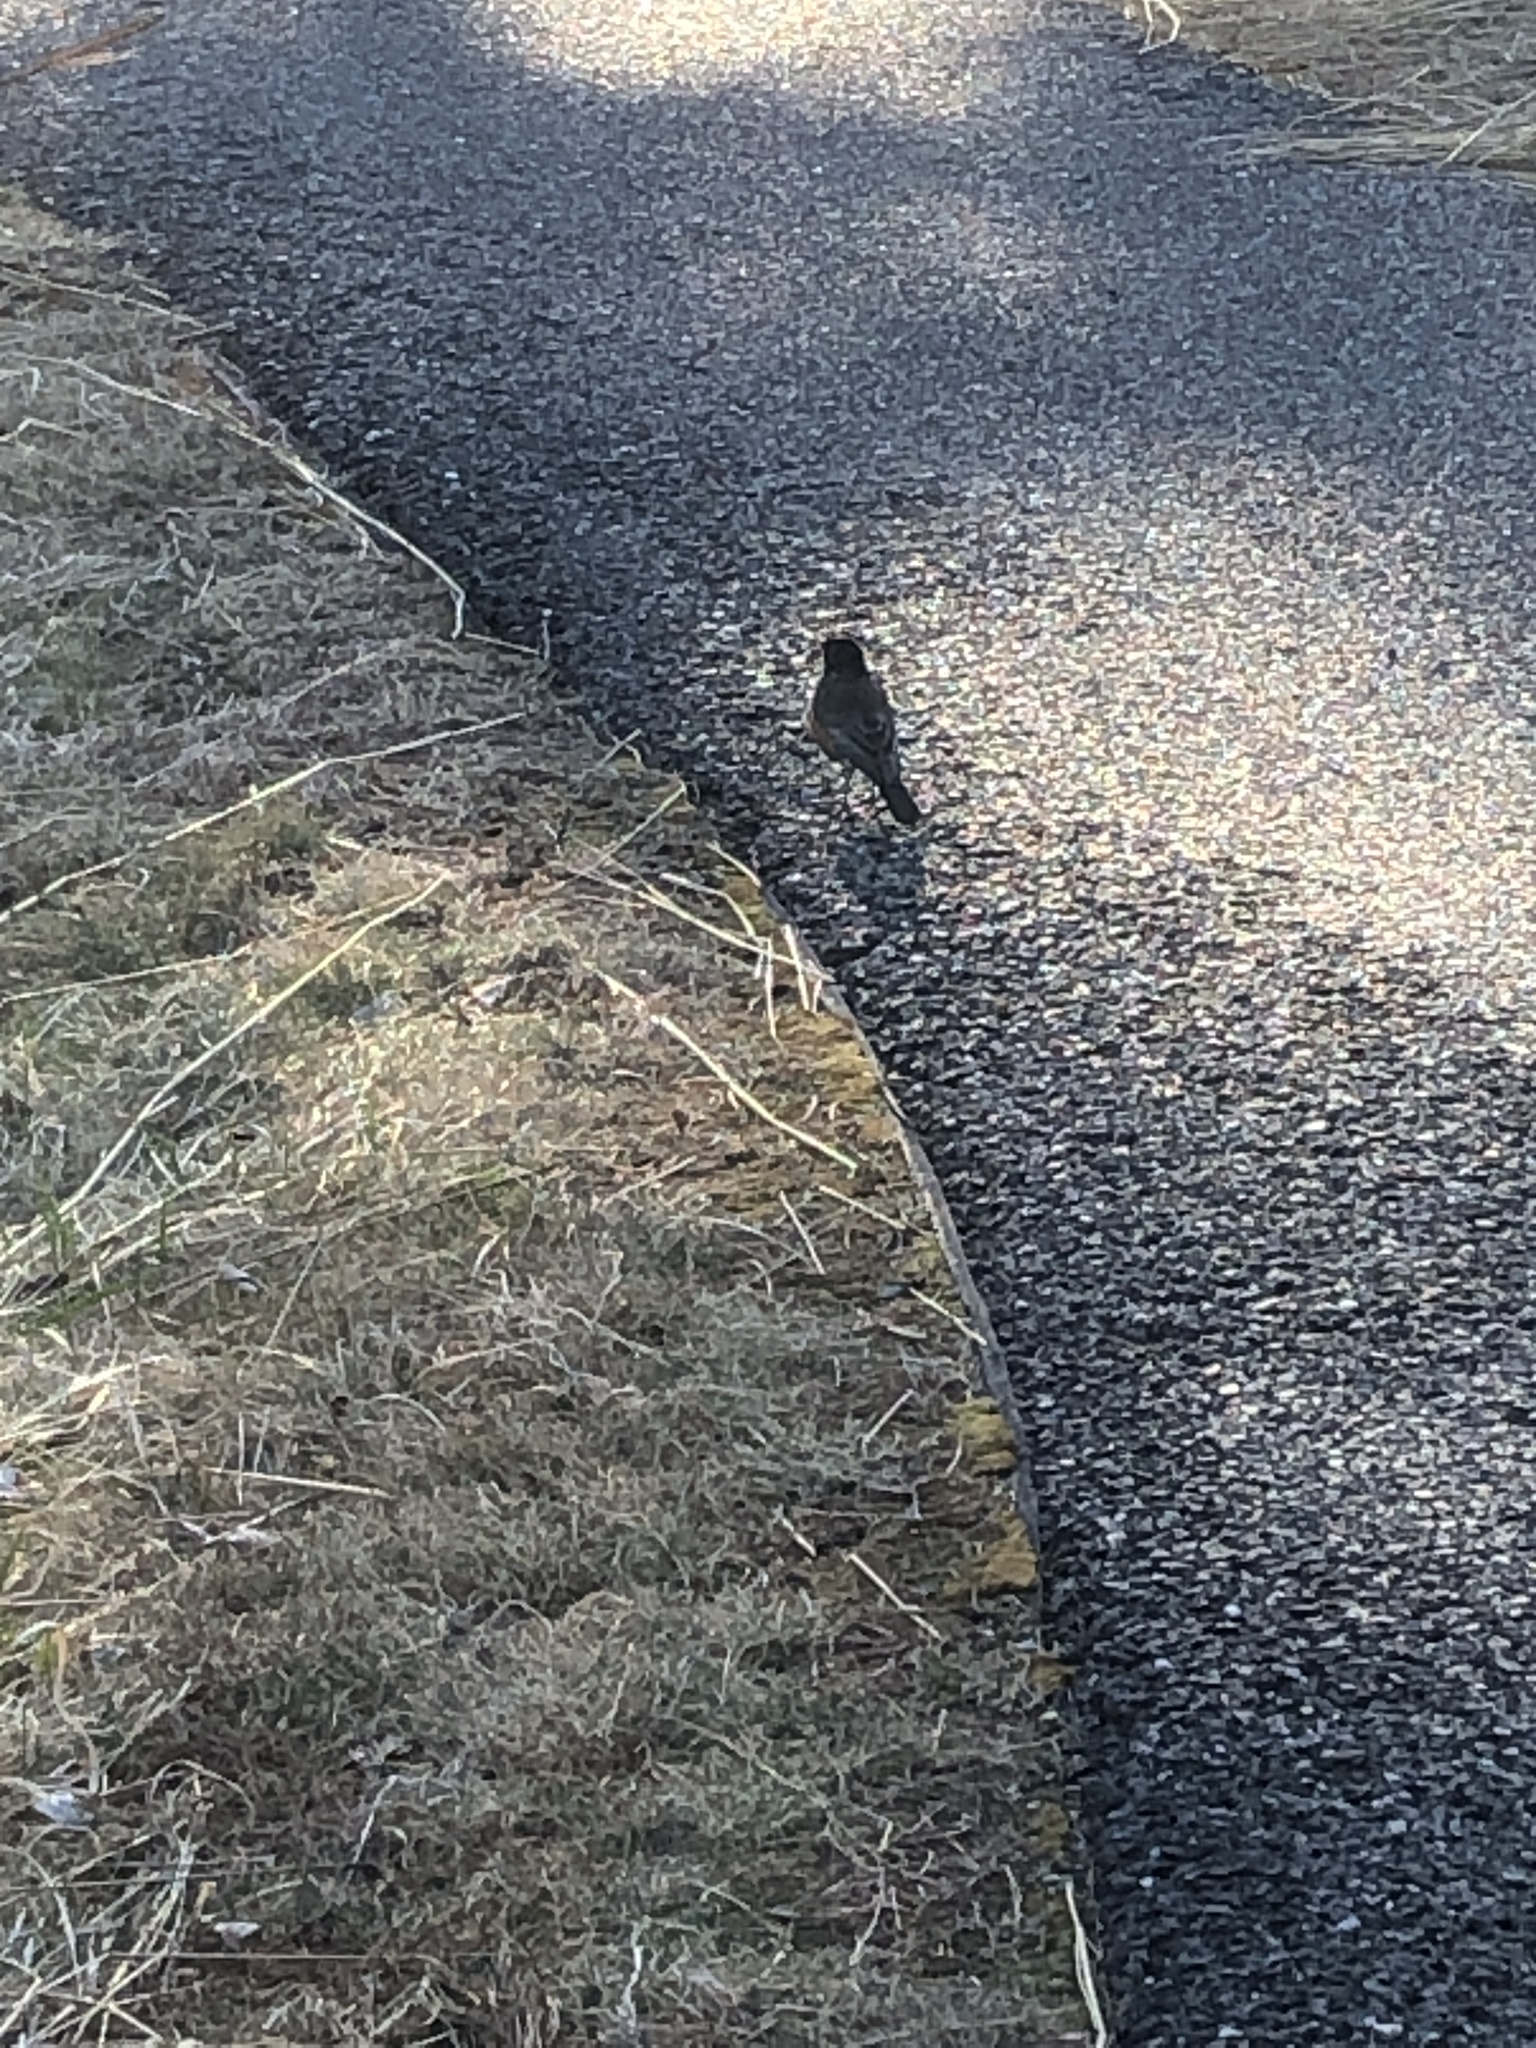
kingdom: Animalia
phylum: Chordata
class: Aves
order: Passeriformes
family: Turdidae
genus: Turdus
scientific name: Turdus migratorius
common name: American robin
